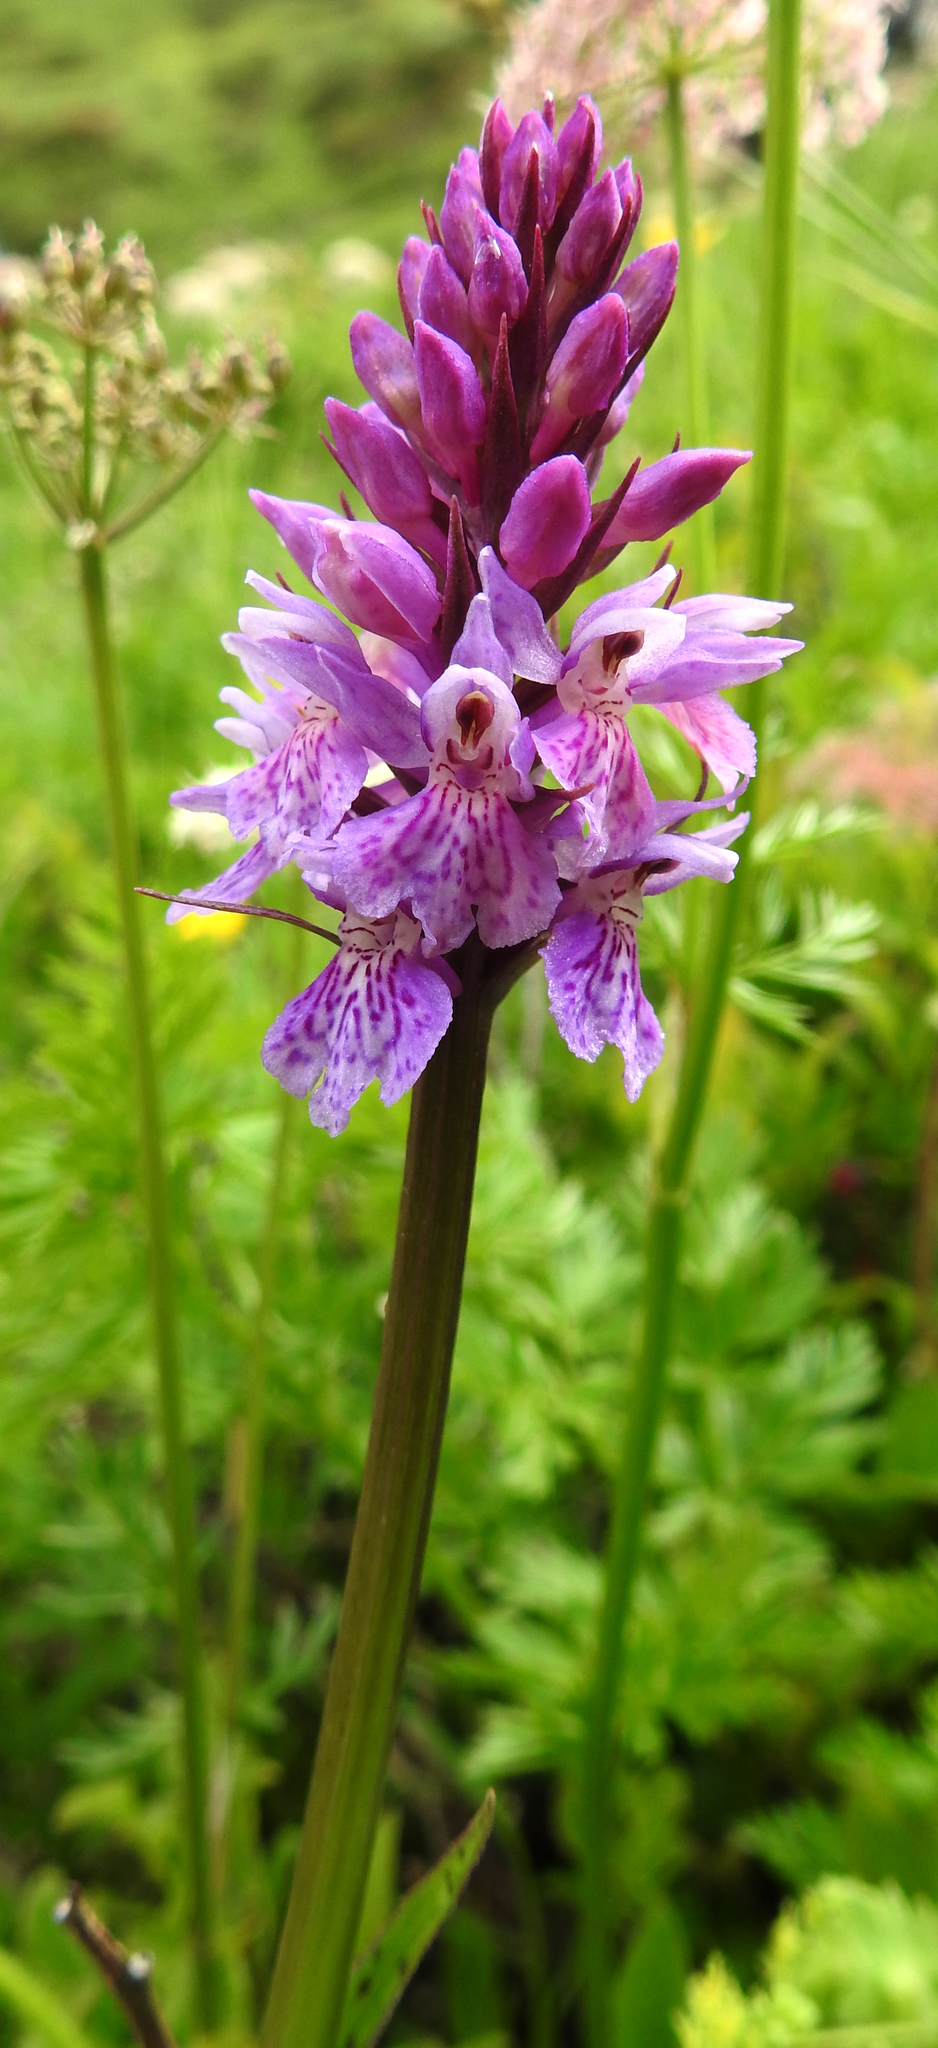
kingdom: Plantae
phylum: Tracheophyta
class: Liliopsida
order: Asparagales
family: Orchidaceae
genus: Dactylorhiza
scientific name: Dactylorhiza maculata
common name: Heath spotted-orchid
